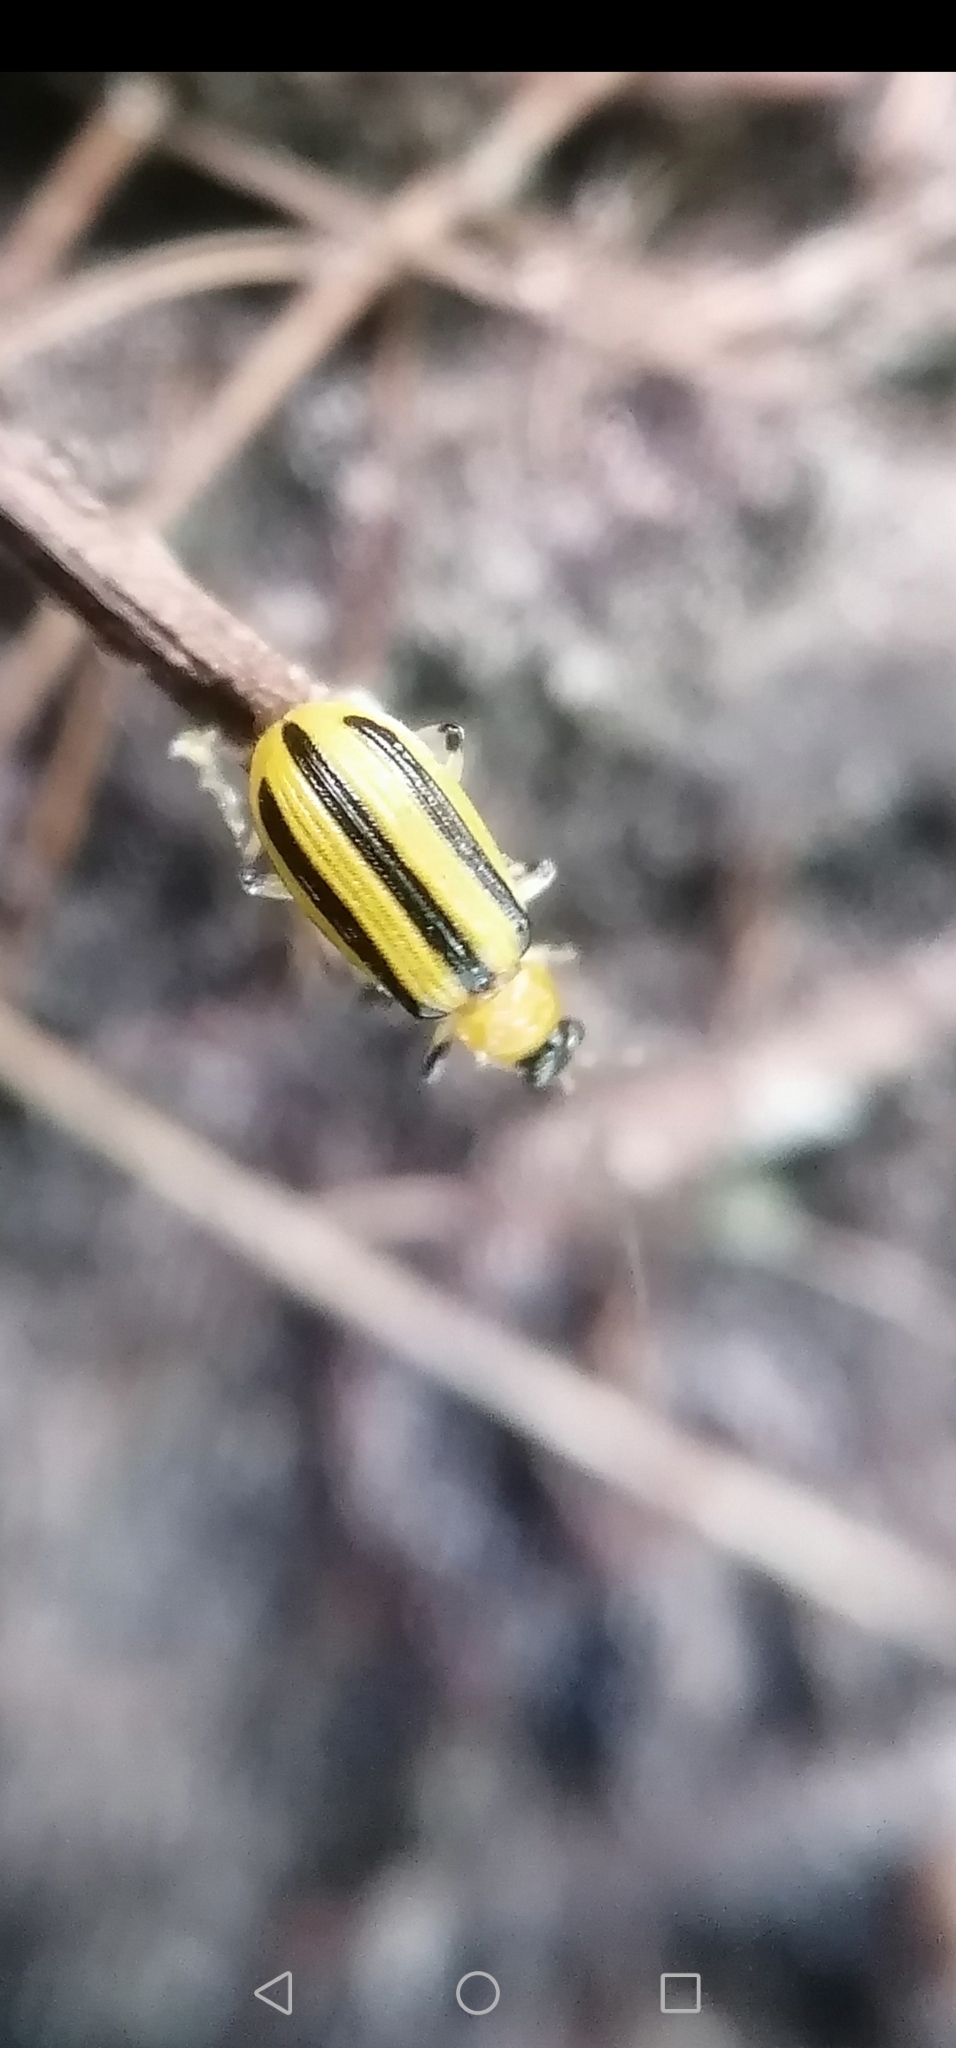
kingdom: Animalia
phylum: Arthropoda
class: Insecta
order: Coleoptera
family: Chrysomelidae
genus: Acalymma
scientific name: Acalymma vittatum
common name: Striped cucumber beetle
